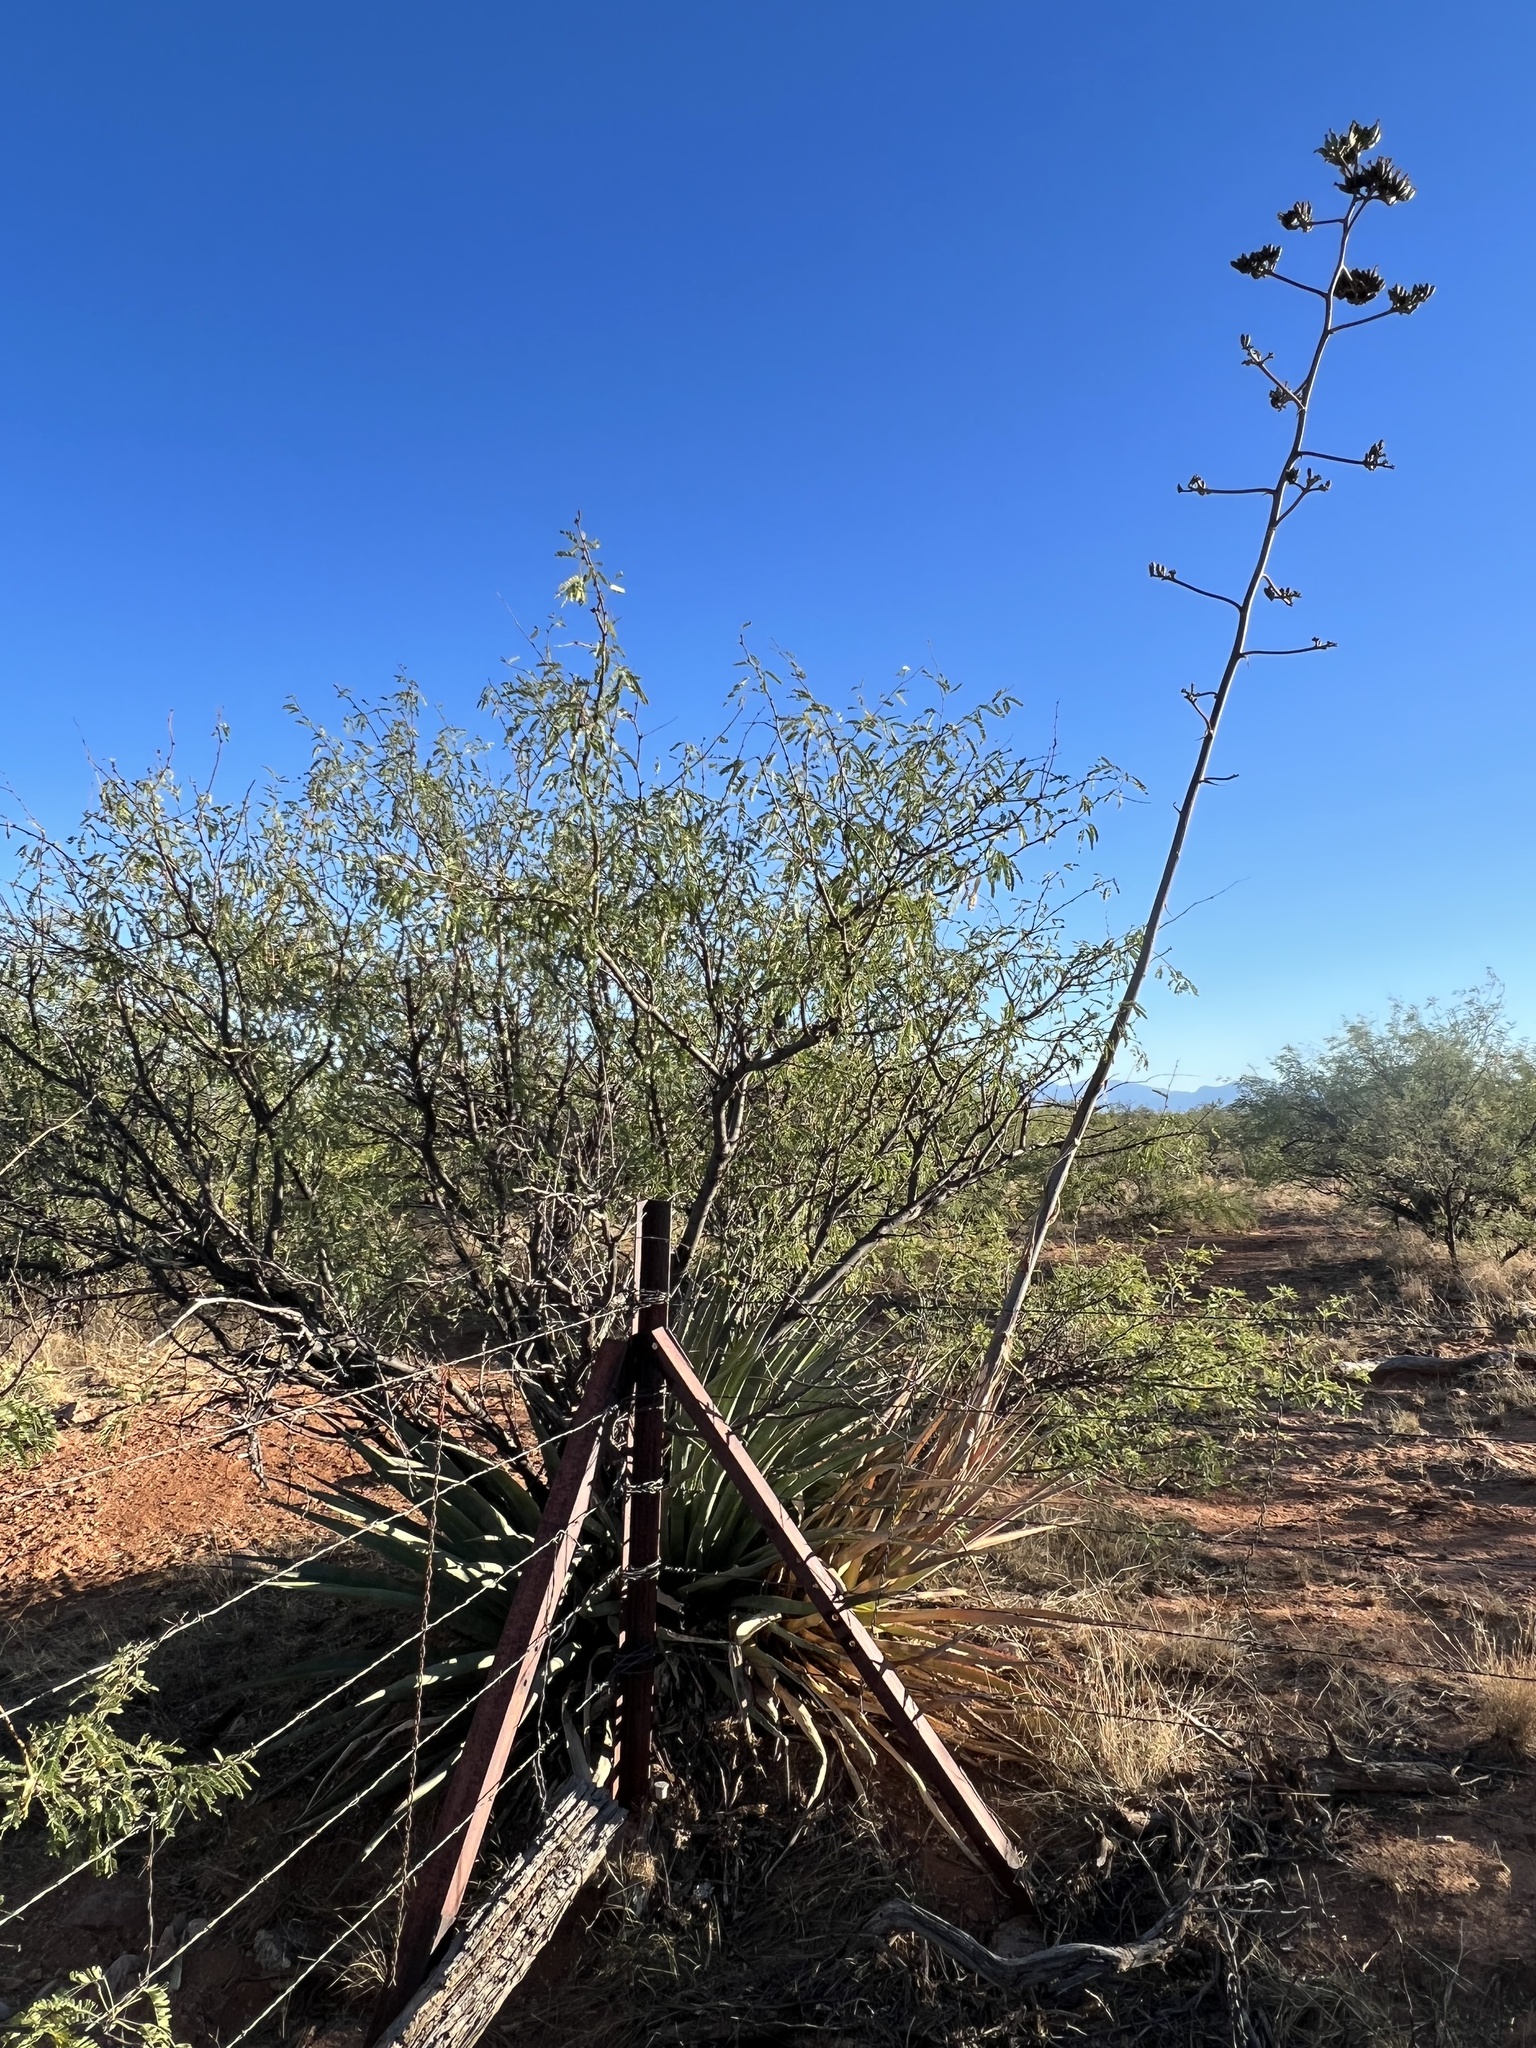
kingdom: Plantae
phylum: Tracheophyta
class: Liliopsida
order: Asparagales
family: Asparagaceae
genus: Agave
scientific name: Agave palmeri
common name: Palmer agave
